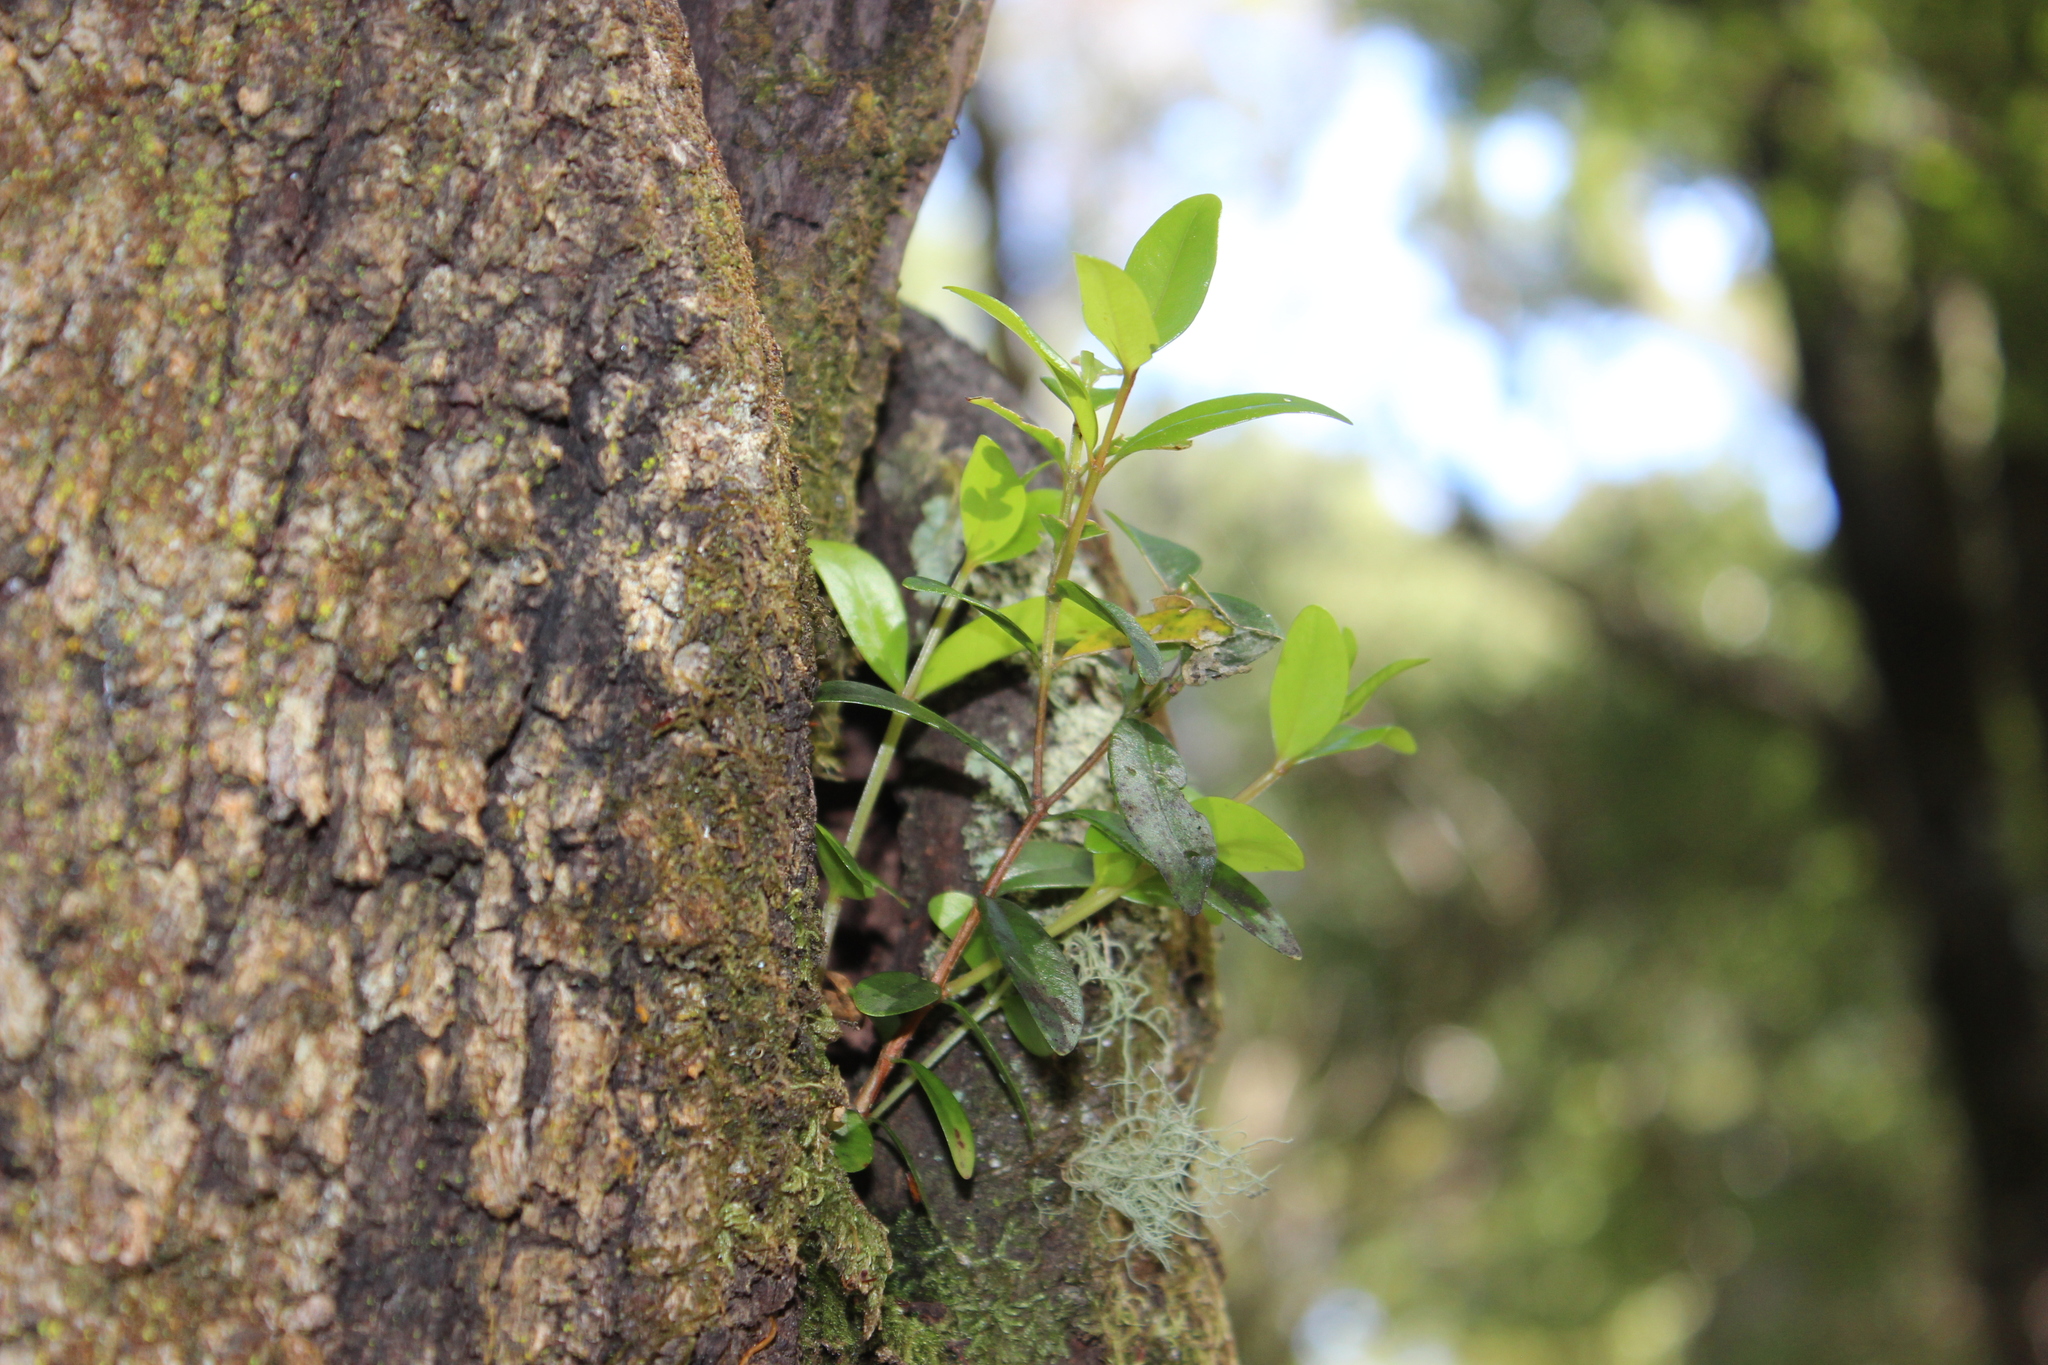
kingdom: Plantae
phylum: Tracheophyta
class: Magnoliopsida
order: Myrtales
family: Myrtaceae
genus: Metrosideros
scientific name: Metrosideros robusta
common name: Northern rata
